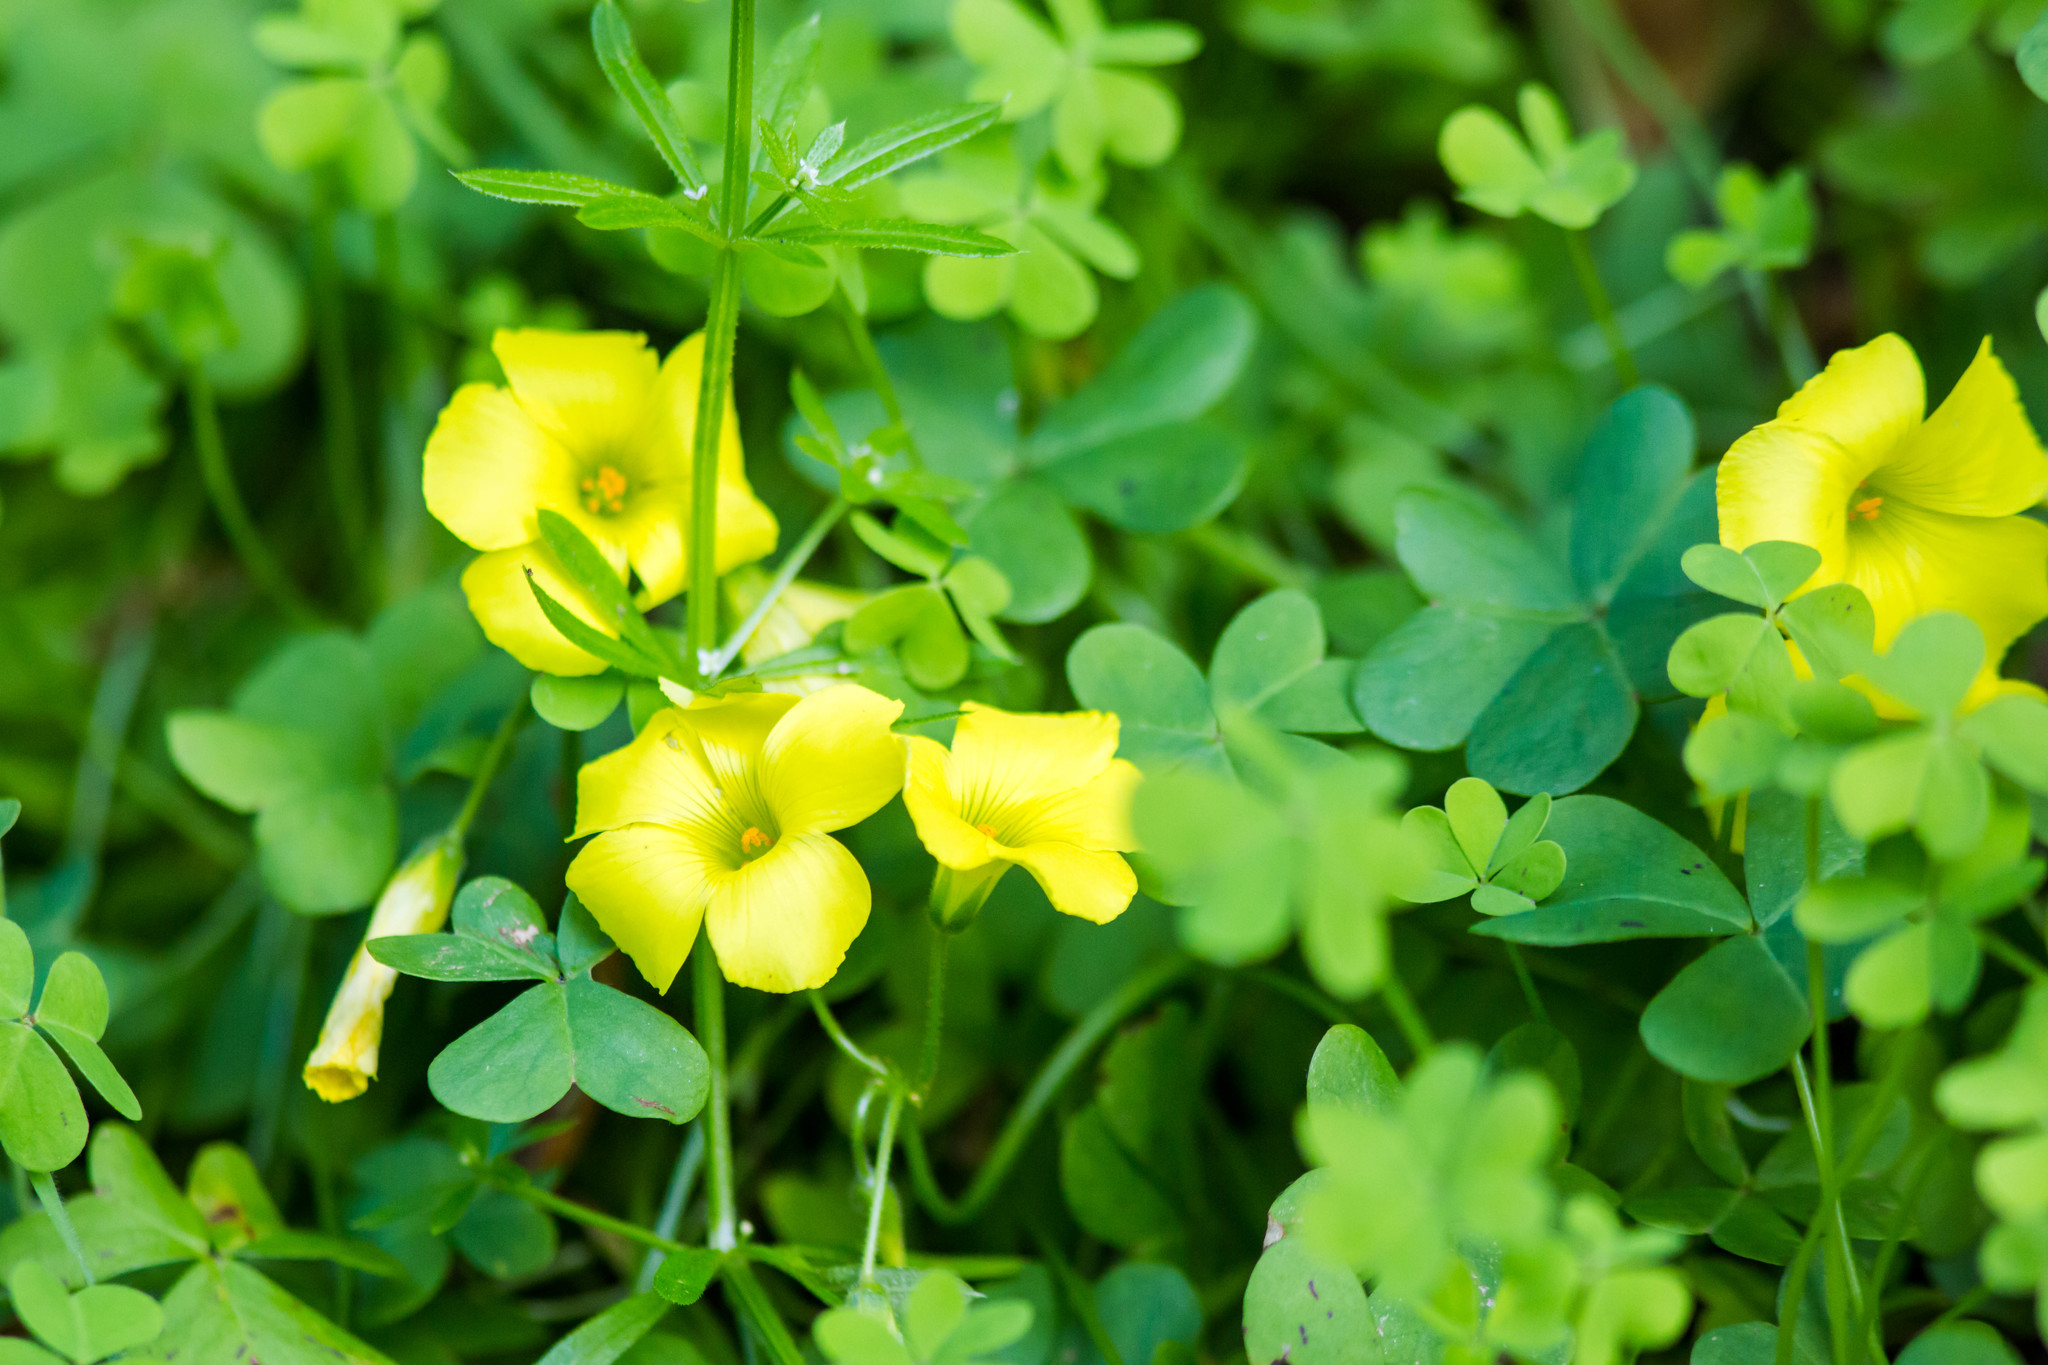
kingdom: Plantae
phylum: Tracheophyta
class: Magnoliopsida
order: Oxalidales
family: Oxalidaceae
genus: Oxalis
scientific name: Oxalis pes-caprae
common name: Bermuda-buttercup
